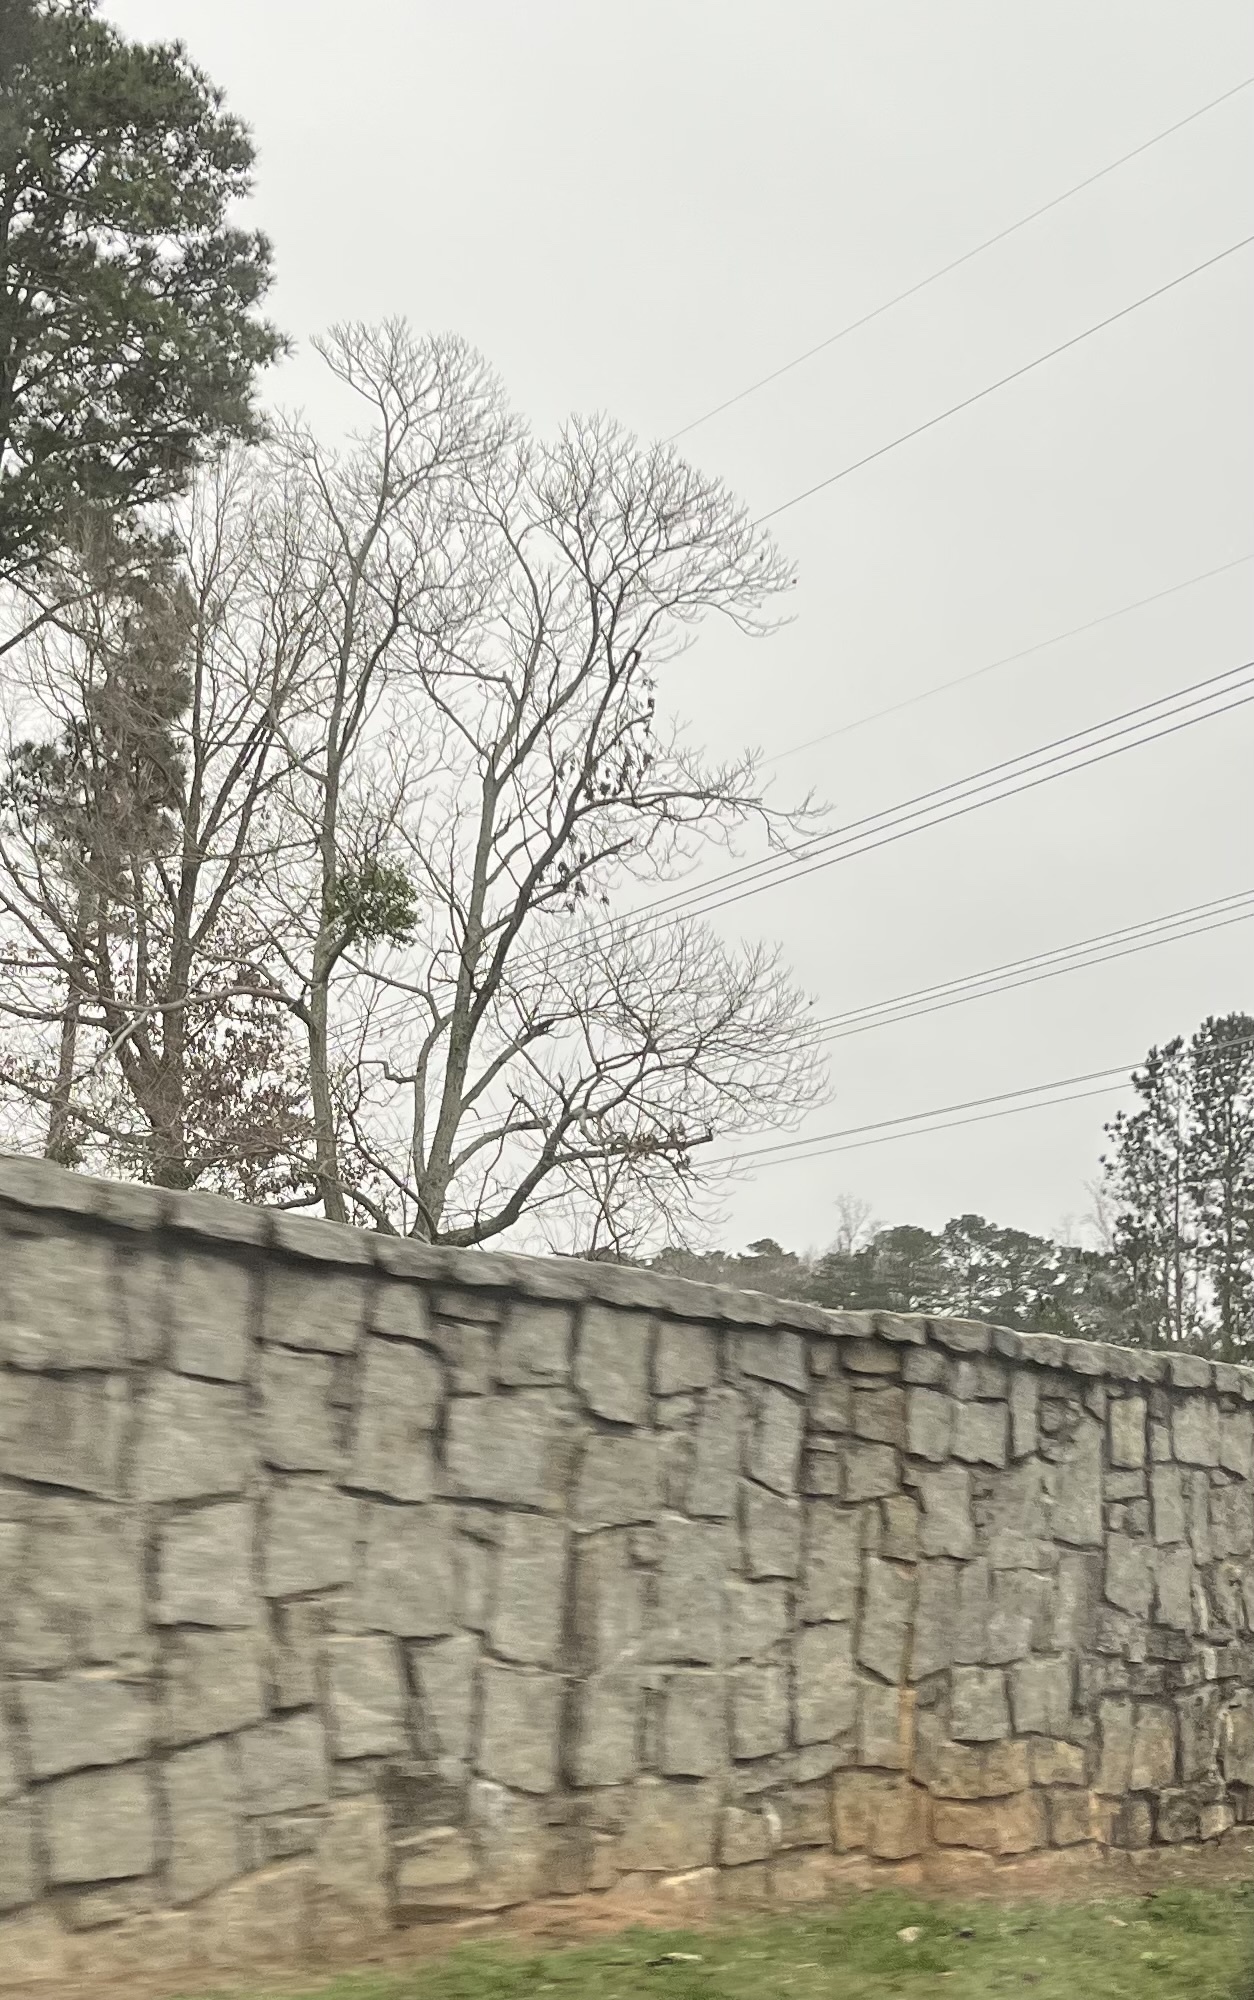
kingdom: Plantae
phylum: Tracheophyta
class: Magnoliopsida
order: Santalales
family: Viscaceae
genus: Phoradendron
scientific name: Phoradendron leucarpum
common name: Pacific mistletoe
